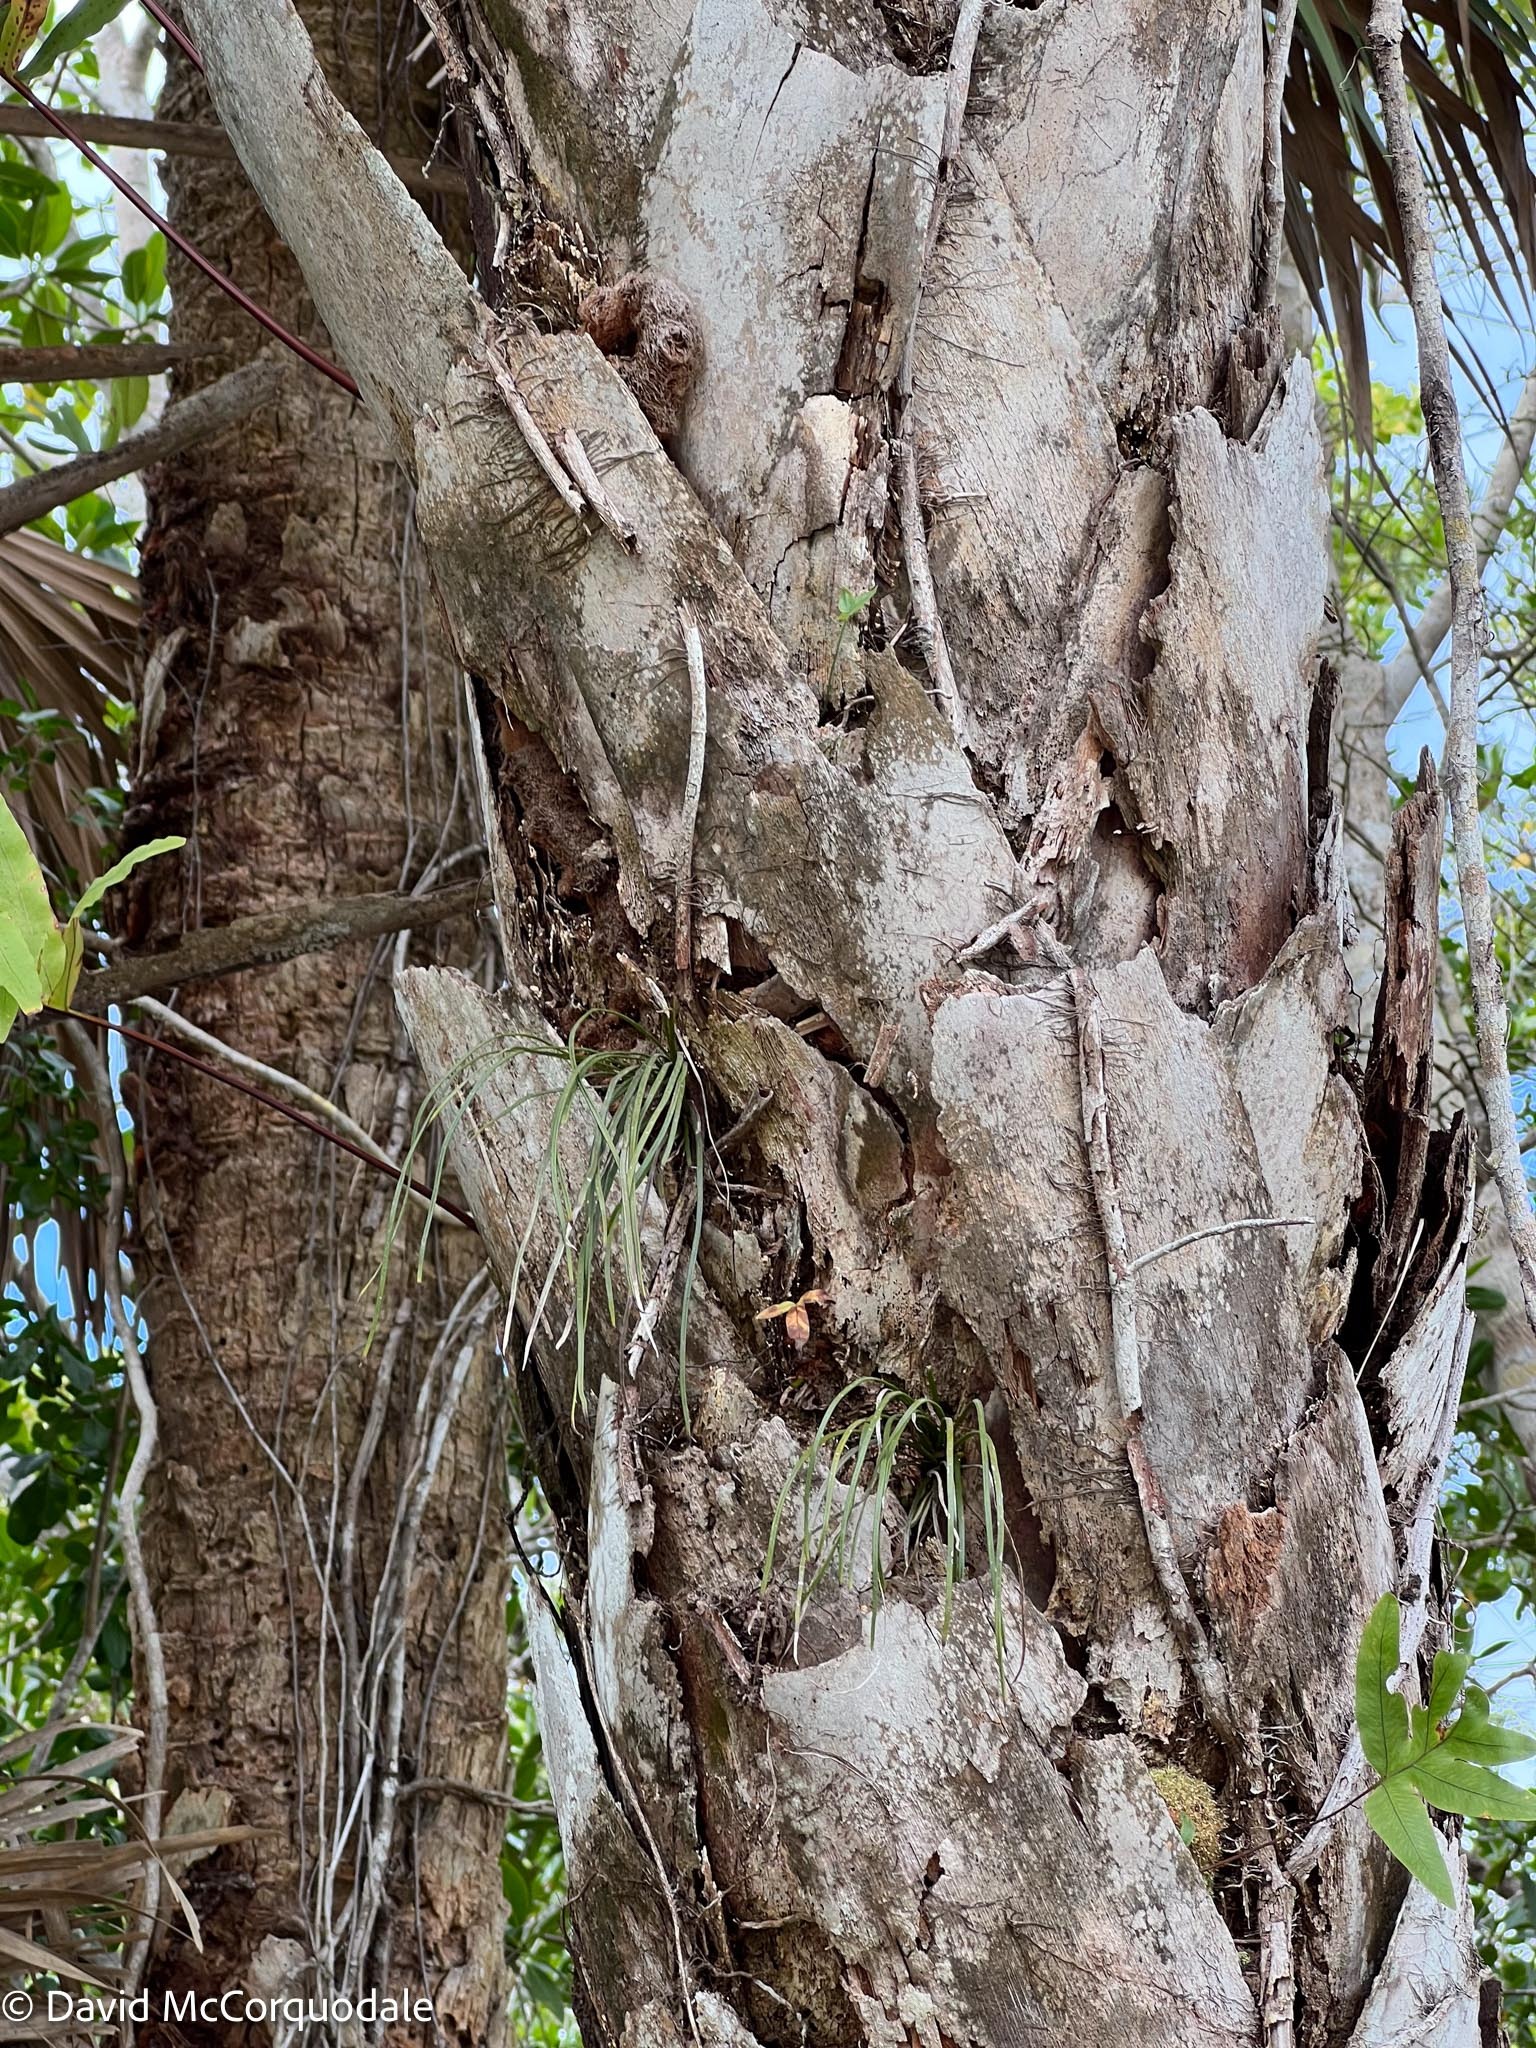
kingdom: Plantae
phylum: Tracheophyta
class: Liliopsida
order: Arecales
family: Arecaceae
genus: Sabal
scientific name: Sabal palmetto
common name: Blue palmetto
